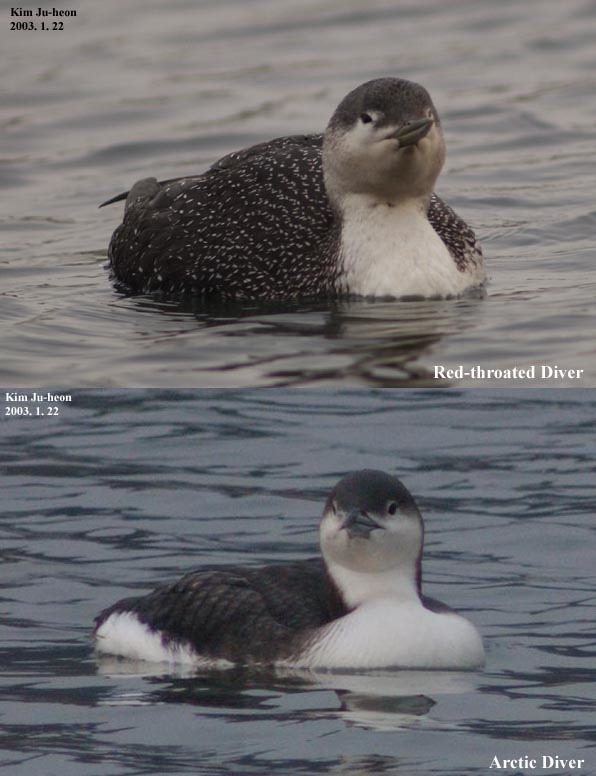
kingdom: Animalia
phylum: Chordata
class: Aves
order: Gaviiformes
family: Gaviidae
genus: Gavia
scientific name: Gavia stellata
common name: Red-throated loon
